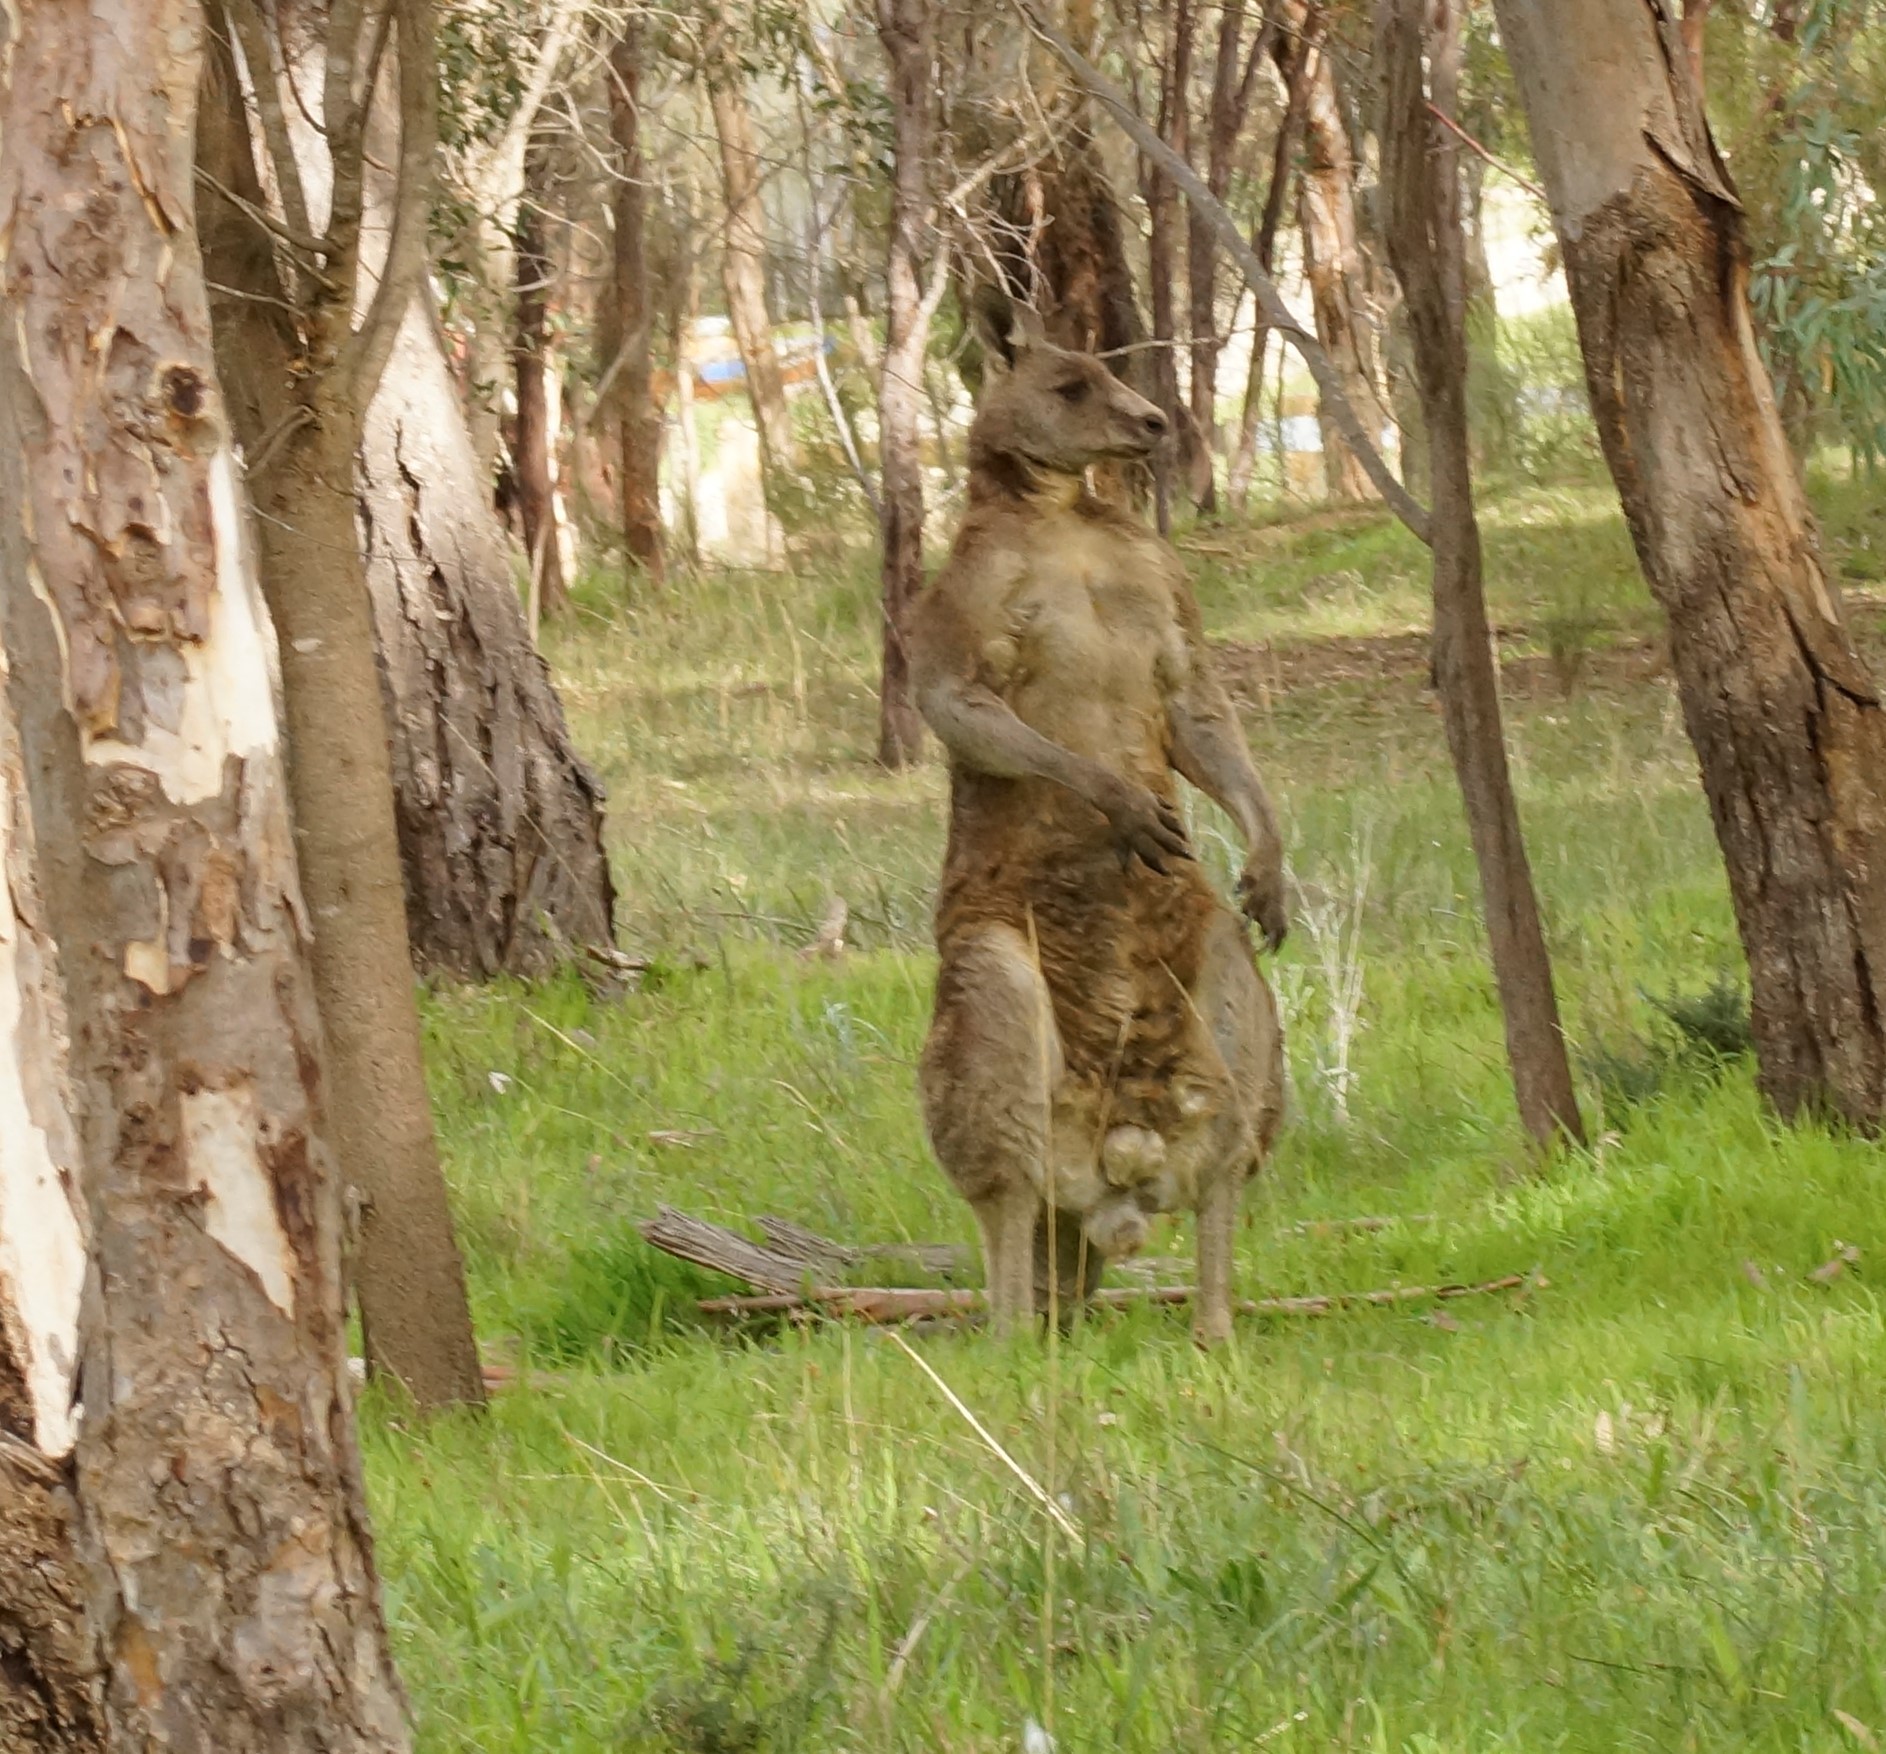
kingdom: Animalia
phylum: Chordata
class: Mammalia
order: Diprotodontia
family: Macropodidae
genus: Macropus
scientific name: Macropus giganteus
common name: Eastern grey kangaroo
